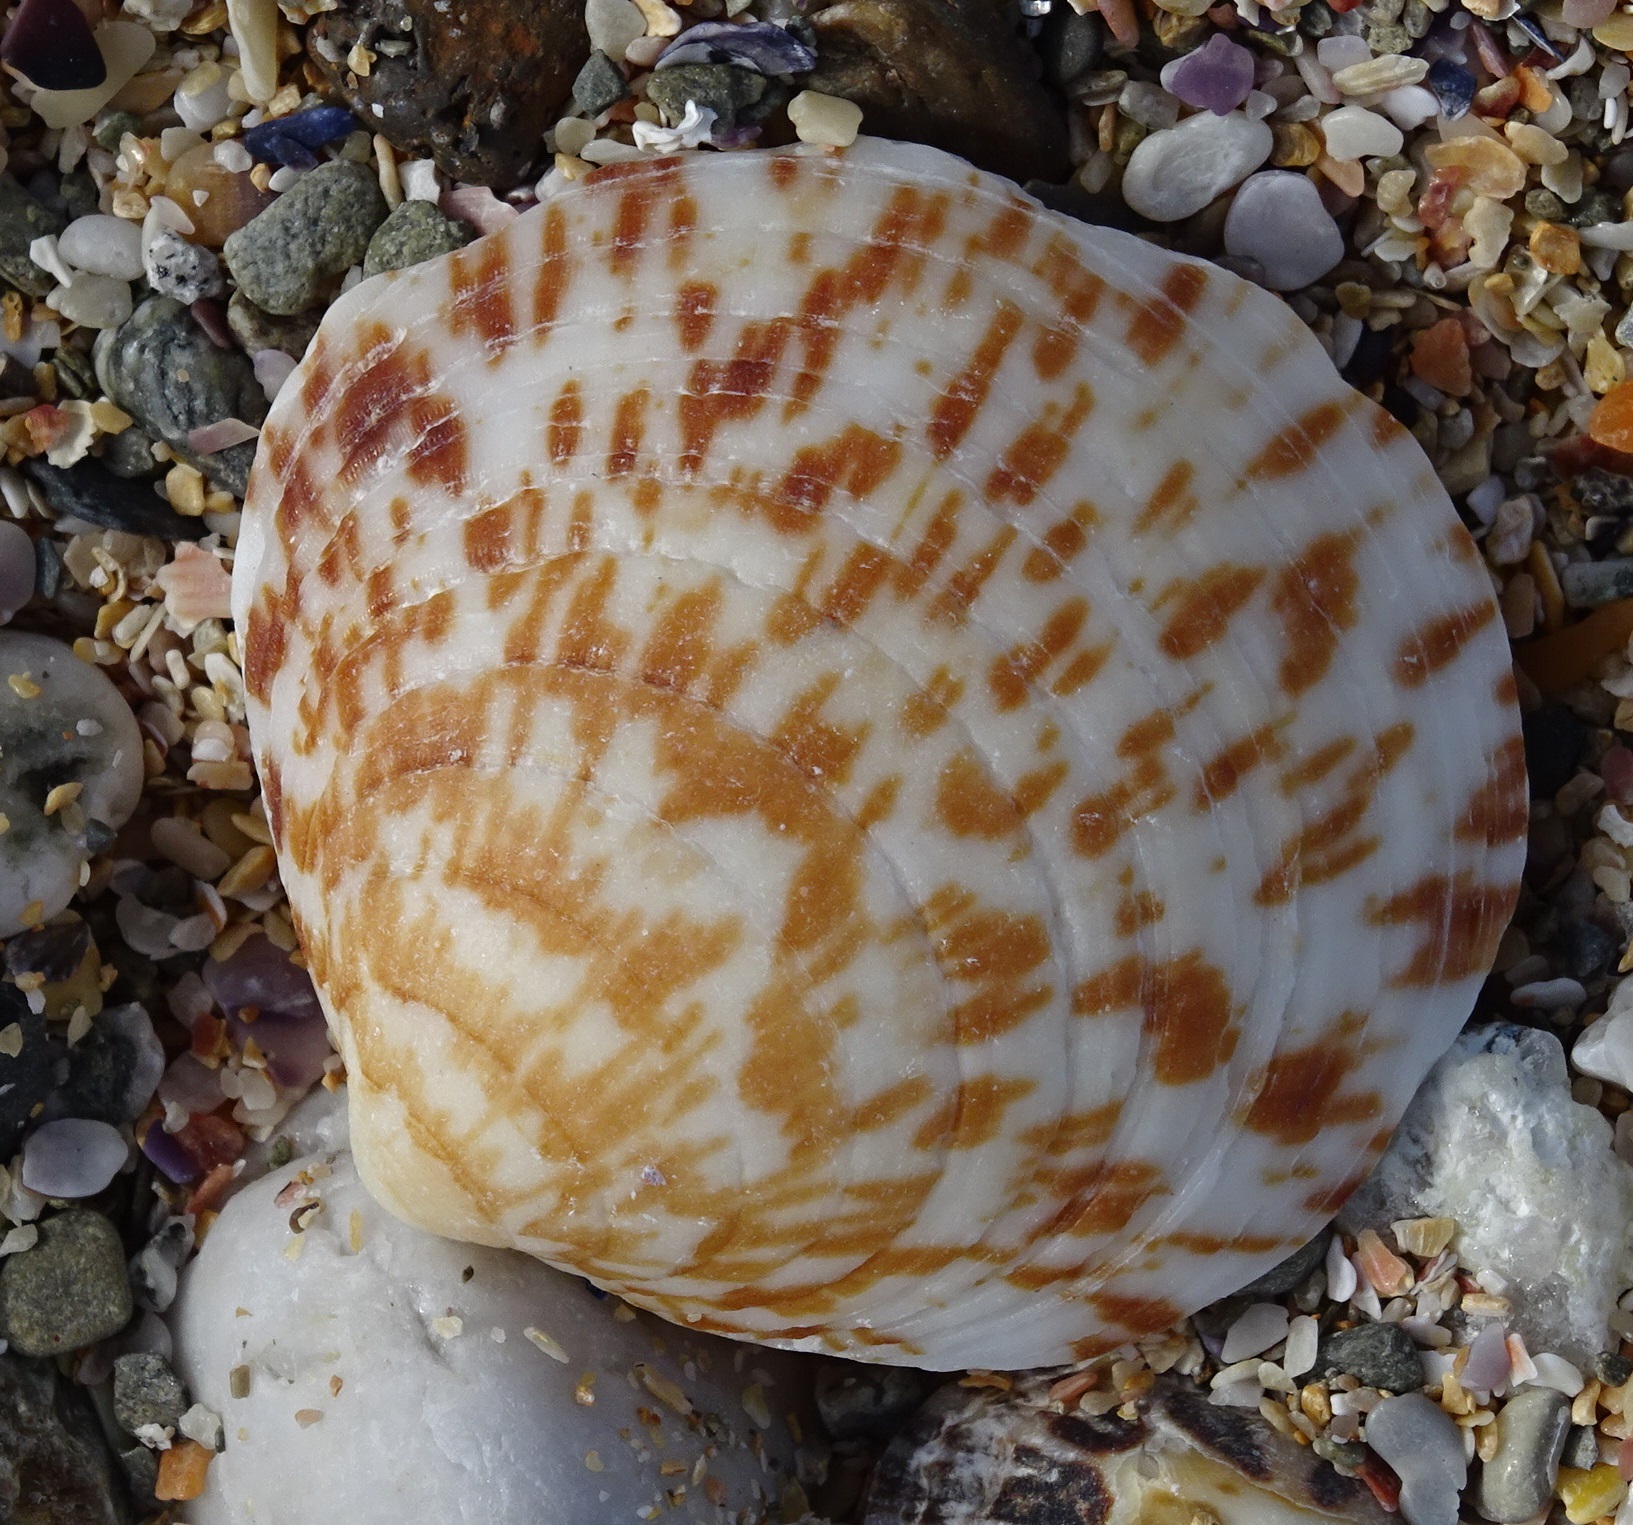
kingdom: Animalia
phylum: Mollusca
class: Bivalvia
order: Arcida
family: Glycymerididae
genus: Glycymeris
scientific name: Glycymeris glycymeris
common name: Dog-cockle
